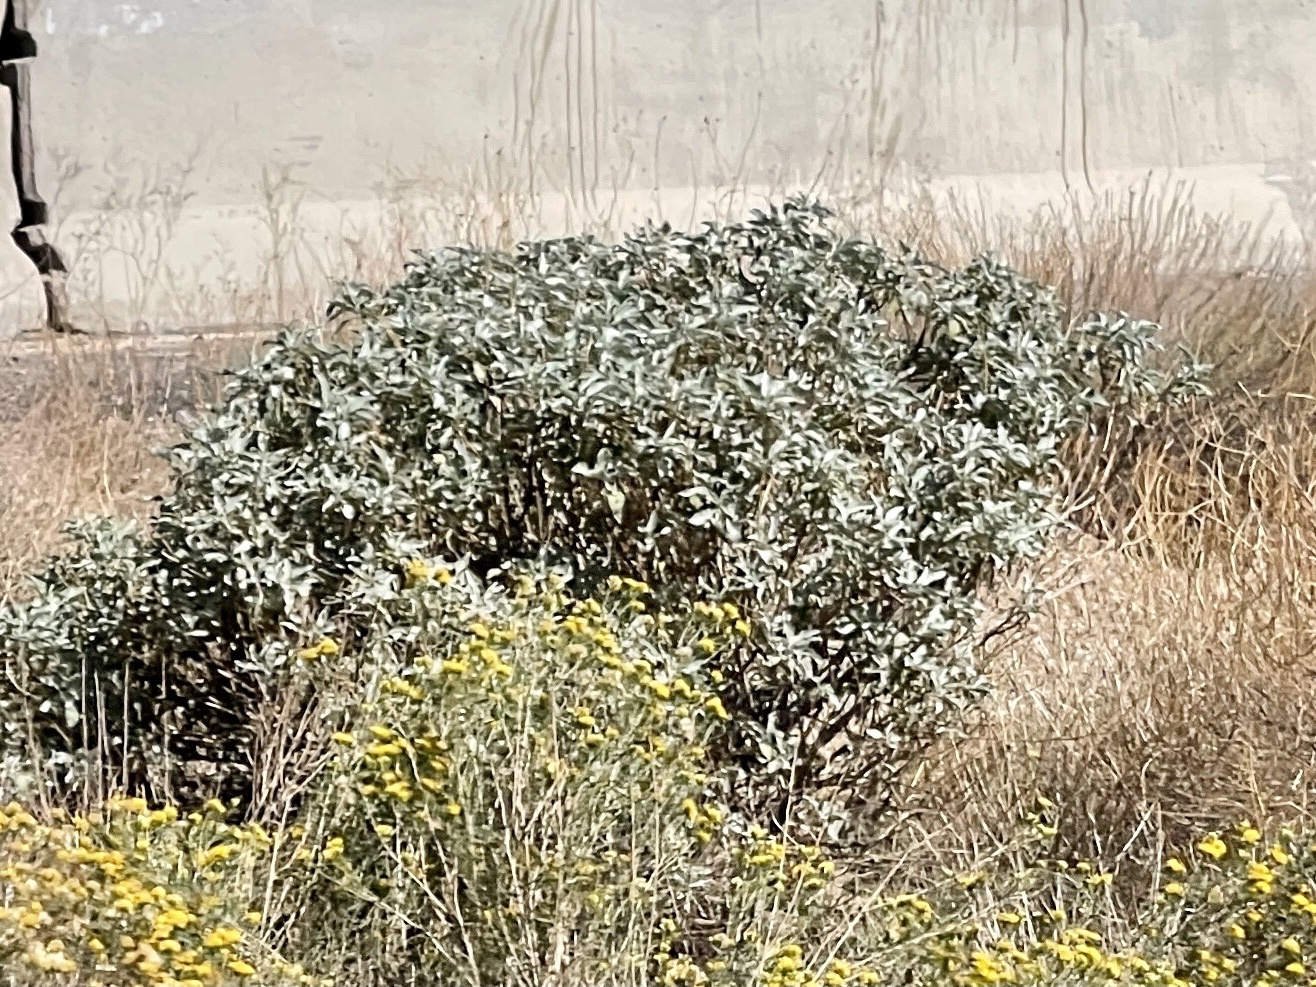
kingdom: Plantae
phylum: Tracheophyta
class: Magnoliopsida
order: Asterales
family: Asteraceae
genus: Encelia
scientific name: Encelia farinosa
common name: Brittlebush
